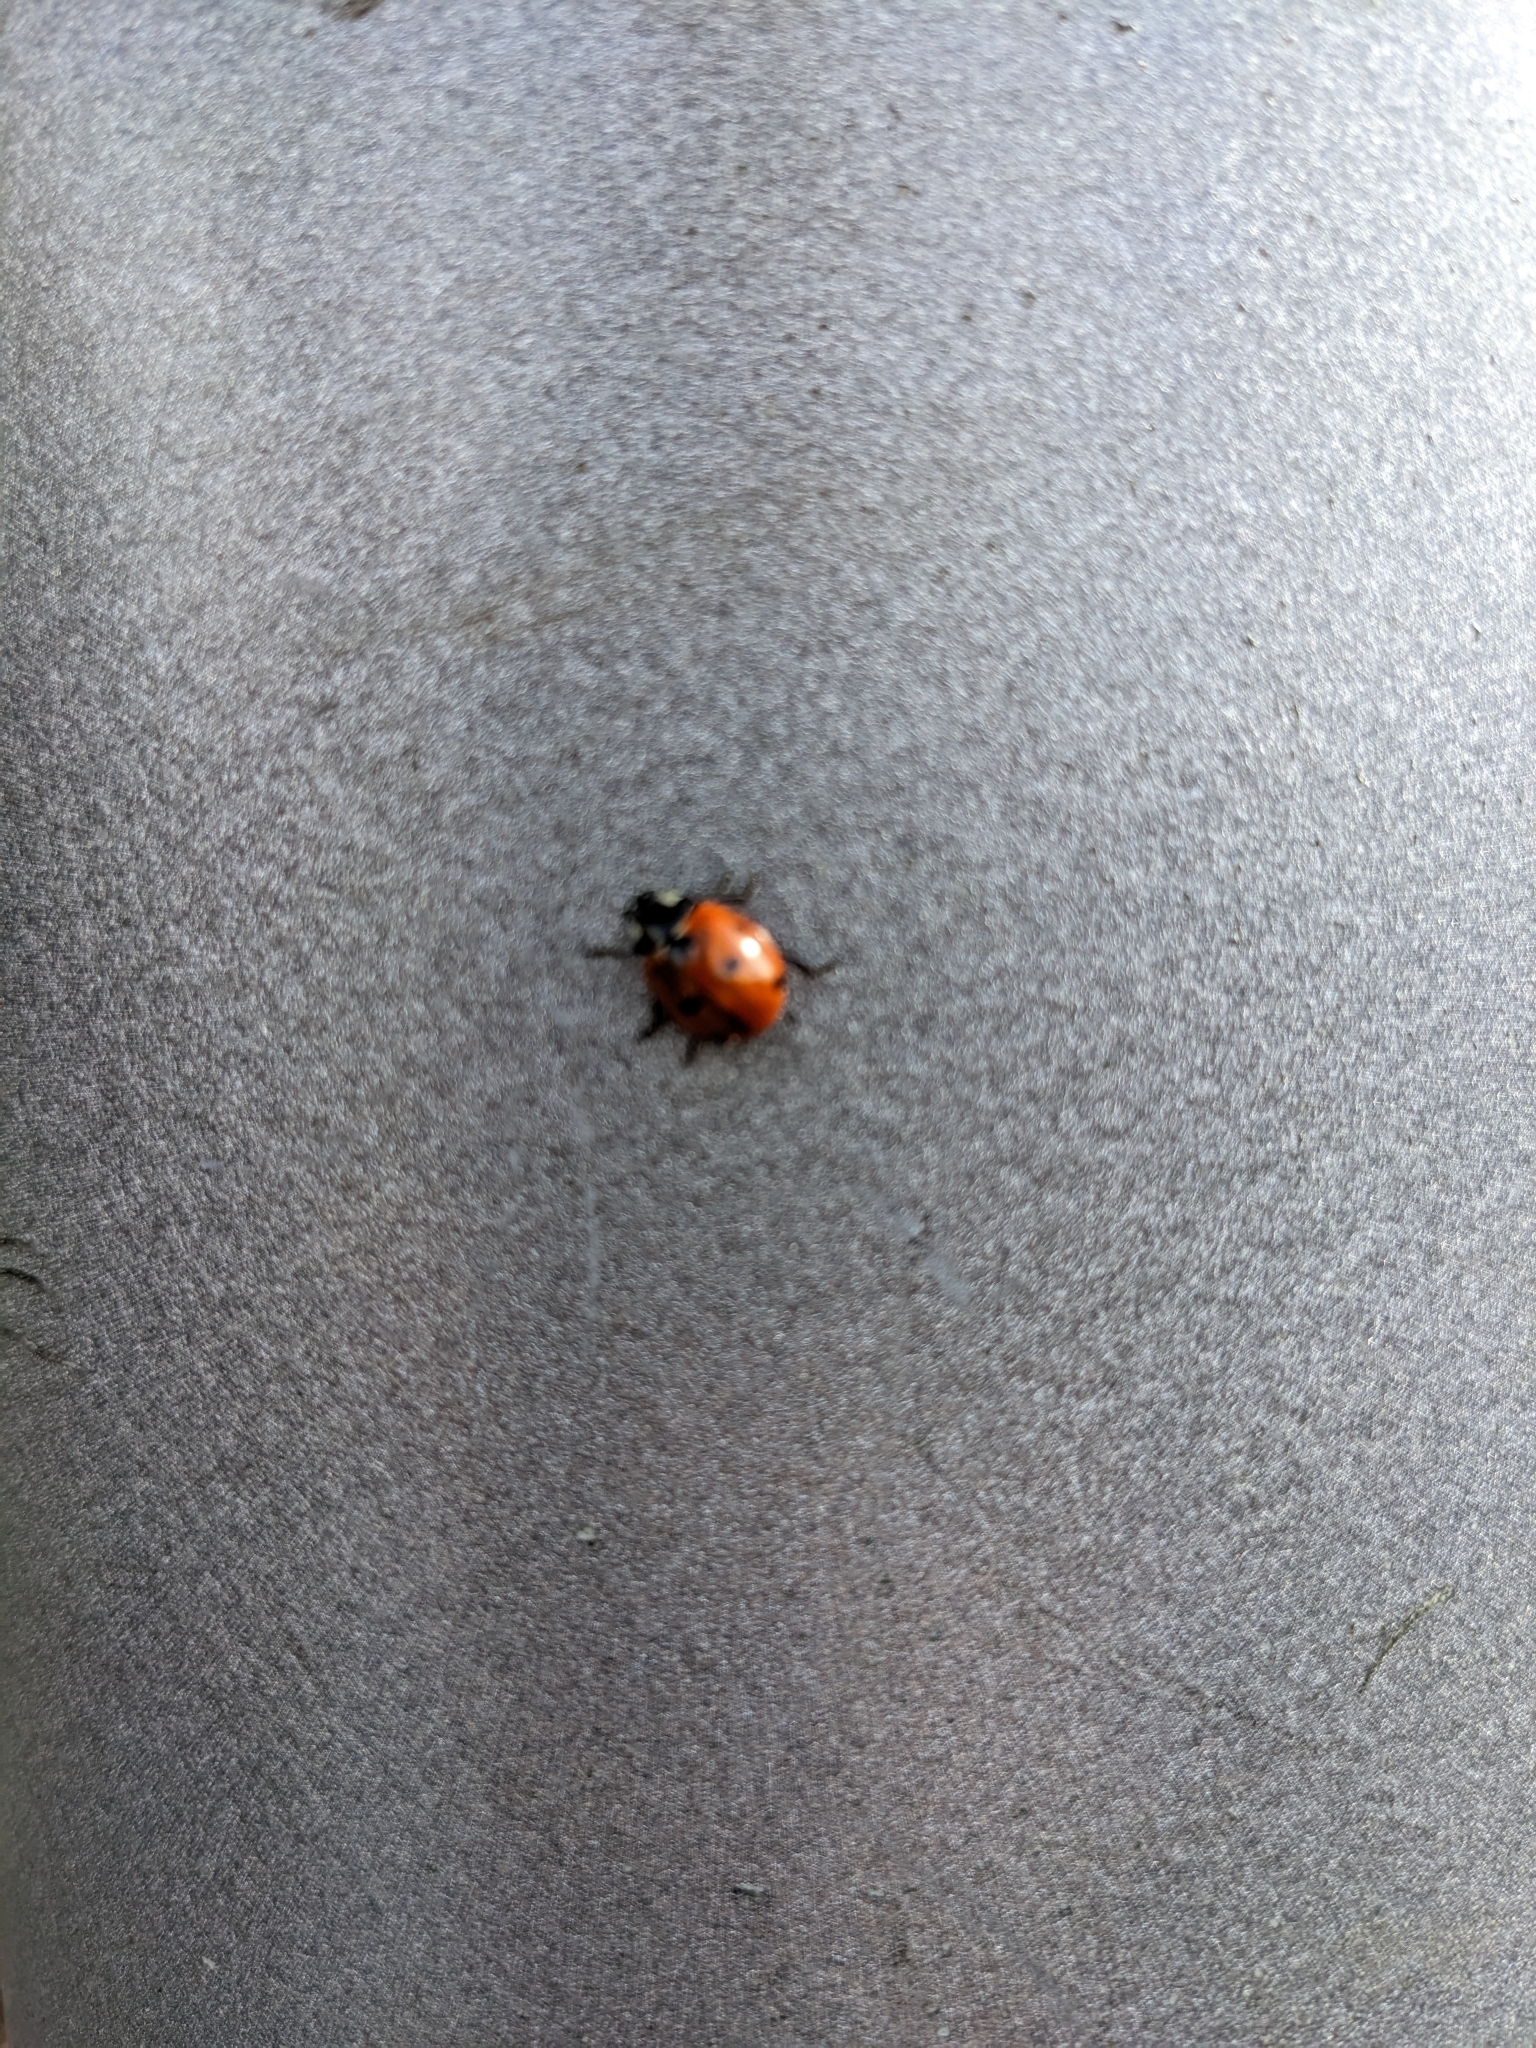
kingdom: Animalia
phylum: Arthropoda
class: Insecta
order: Coleoptera
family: Coccinellidae
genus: Coccinella
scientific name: Coccinella septempunctata
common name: Sevenspotted lady beetle
